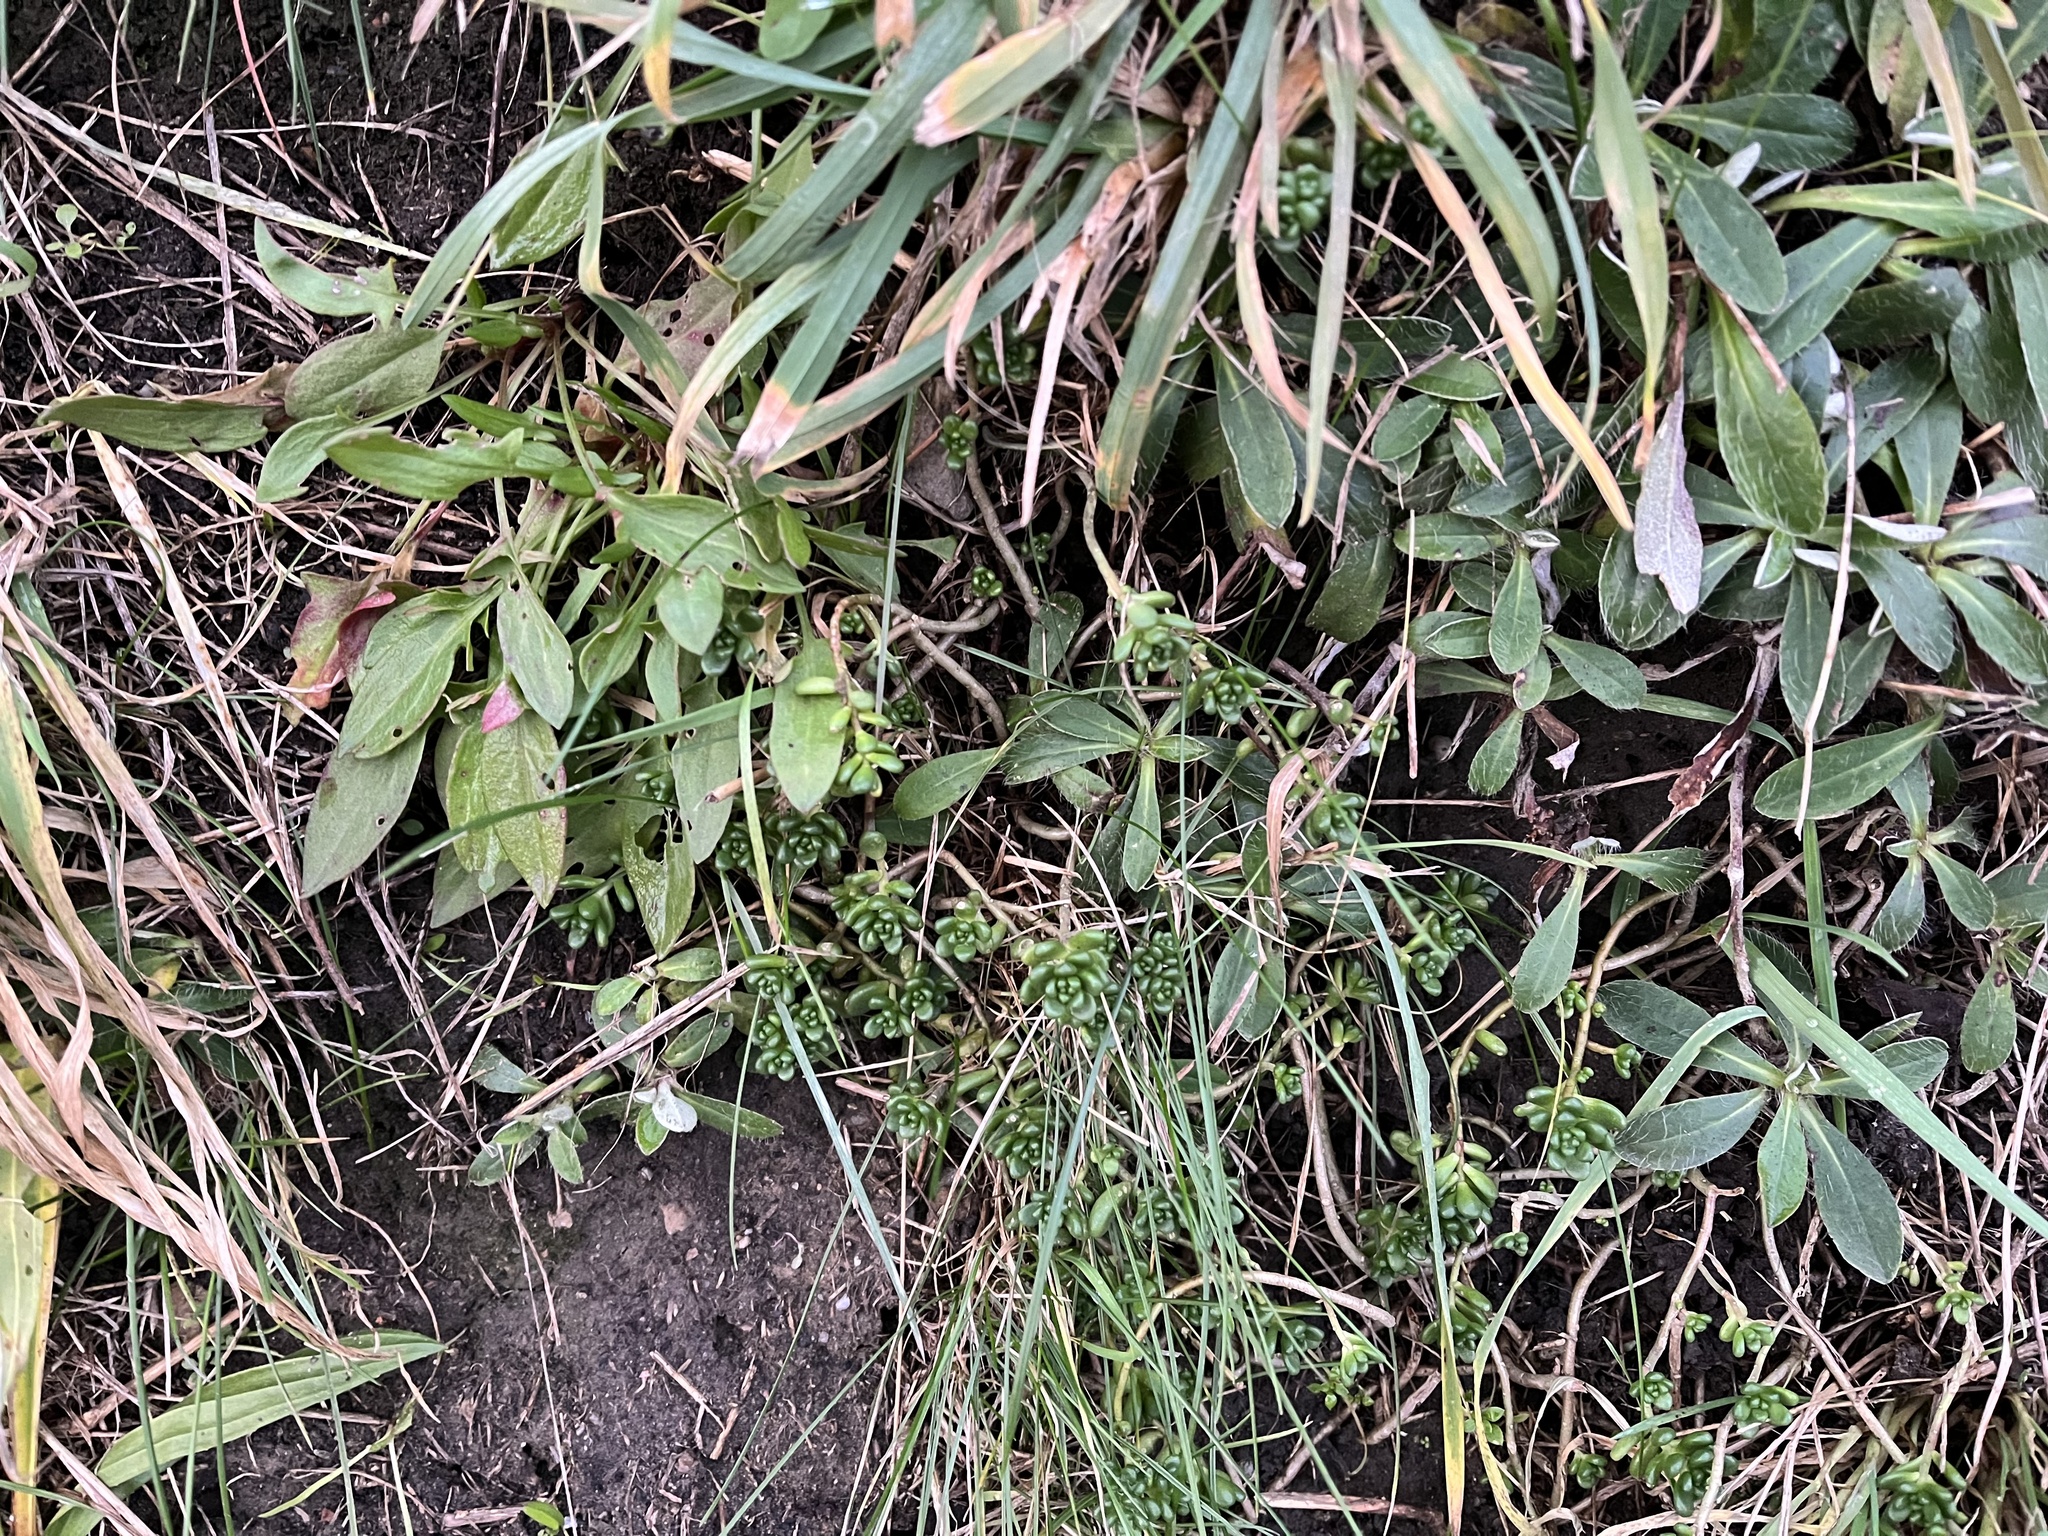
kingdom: Plantae
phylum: Tracheophyta
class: Magnoliopsida
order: Saxifragales
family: Crassulaceae
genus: Sedum
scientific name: Sedum album
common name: White stonecrop
